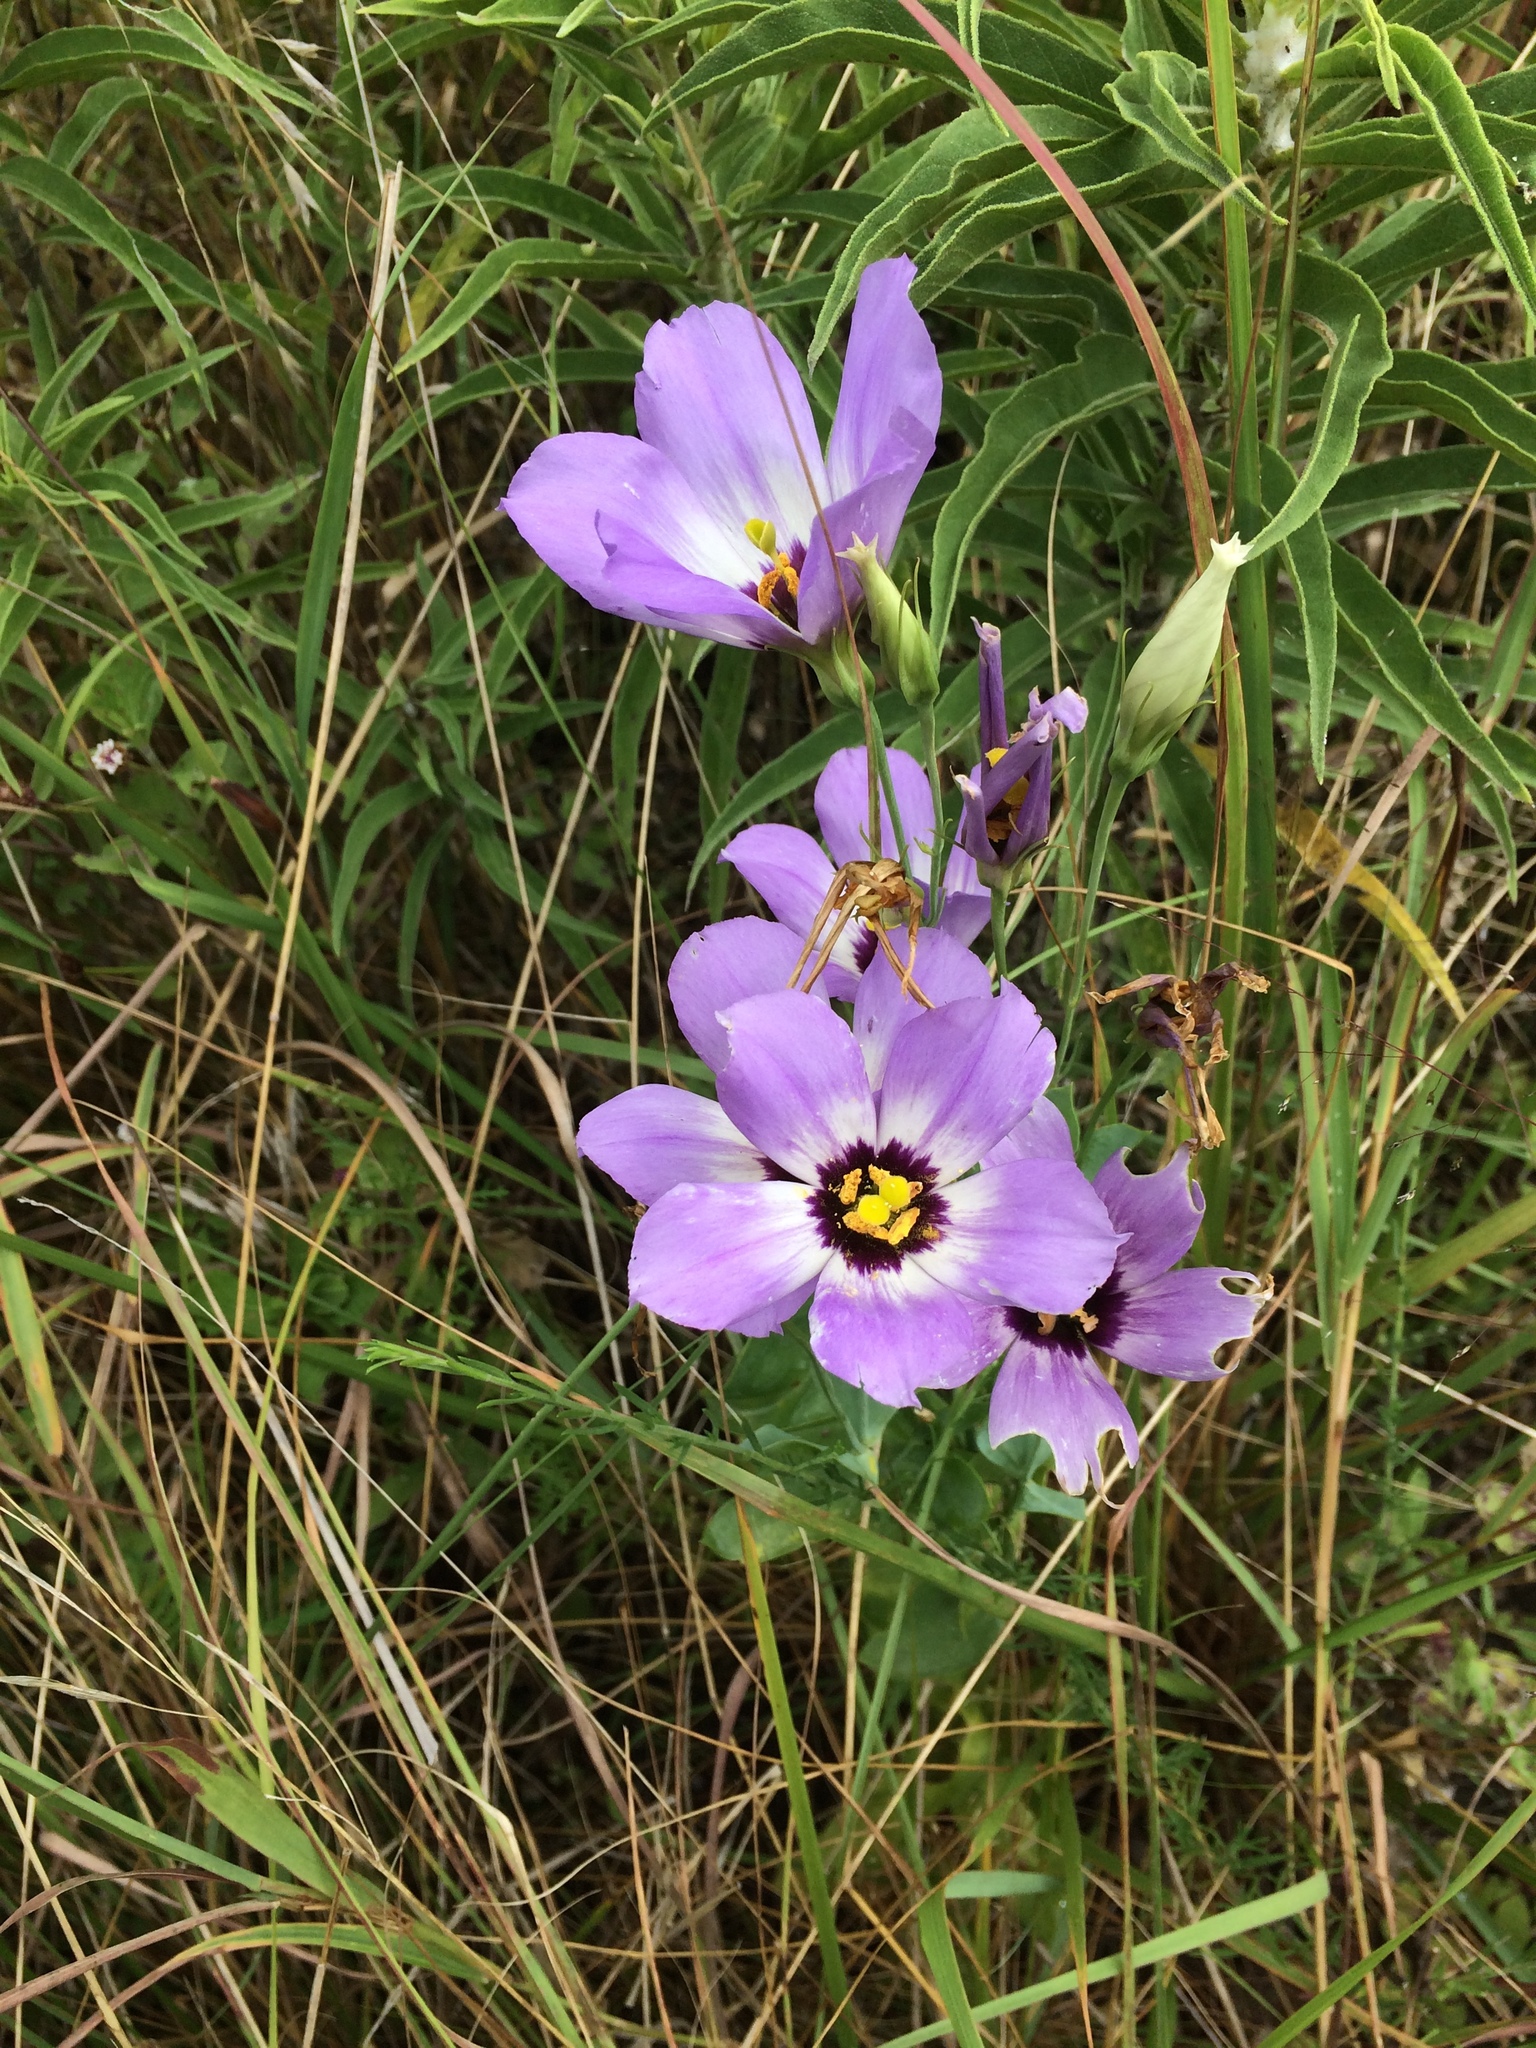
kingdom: Plantae
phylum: Tracheophyta
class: Magnoliopsida
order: Gentianales
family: Gentianaceae
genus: Eustoma
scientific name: Eustoma russellianum
